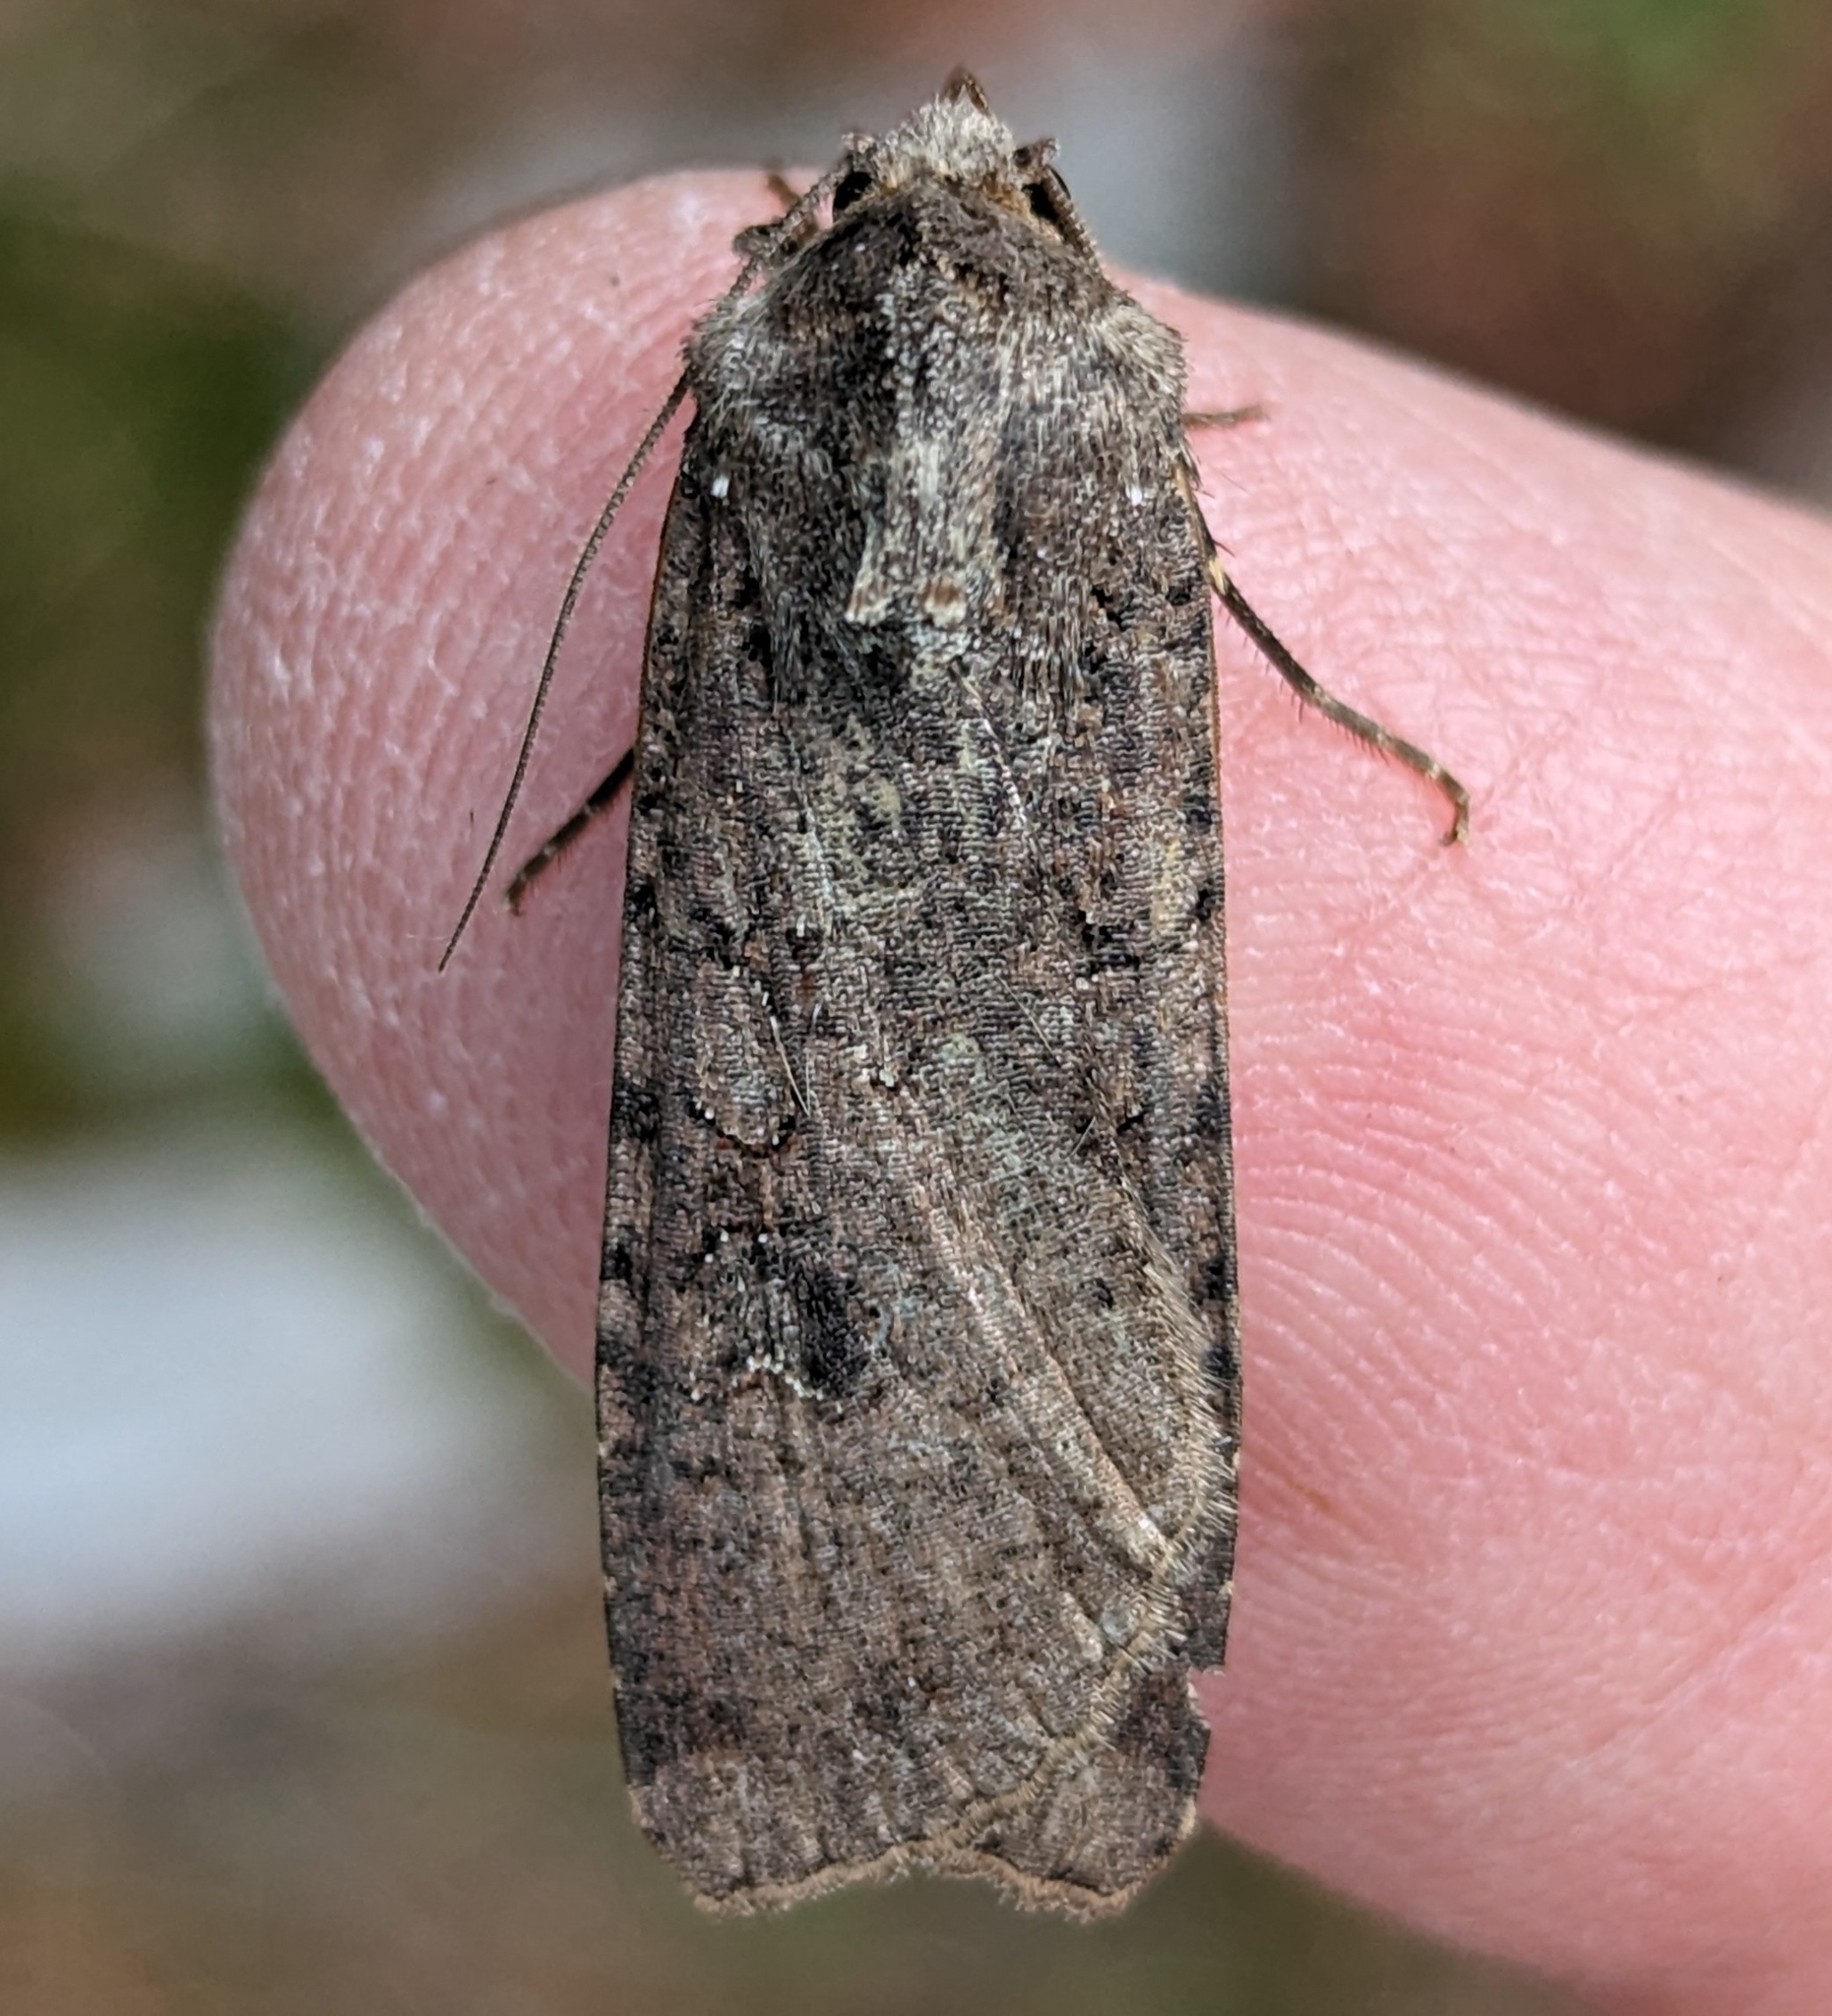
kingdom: Animalia
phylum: Arthropoda
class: Insecta
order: Lepidoptera
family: Noctuidae
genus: Peridroma
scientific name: Peridroma saucia
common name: Pearly underwing
